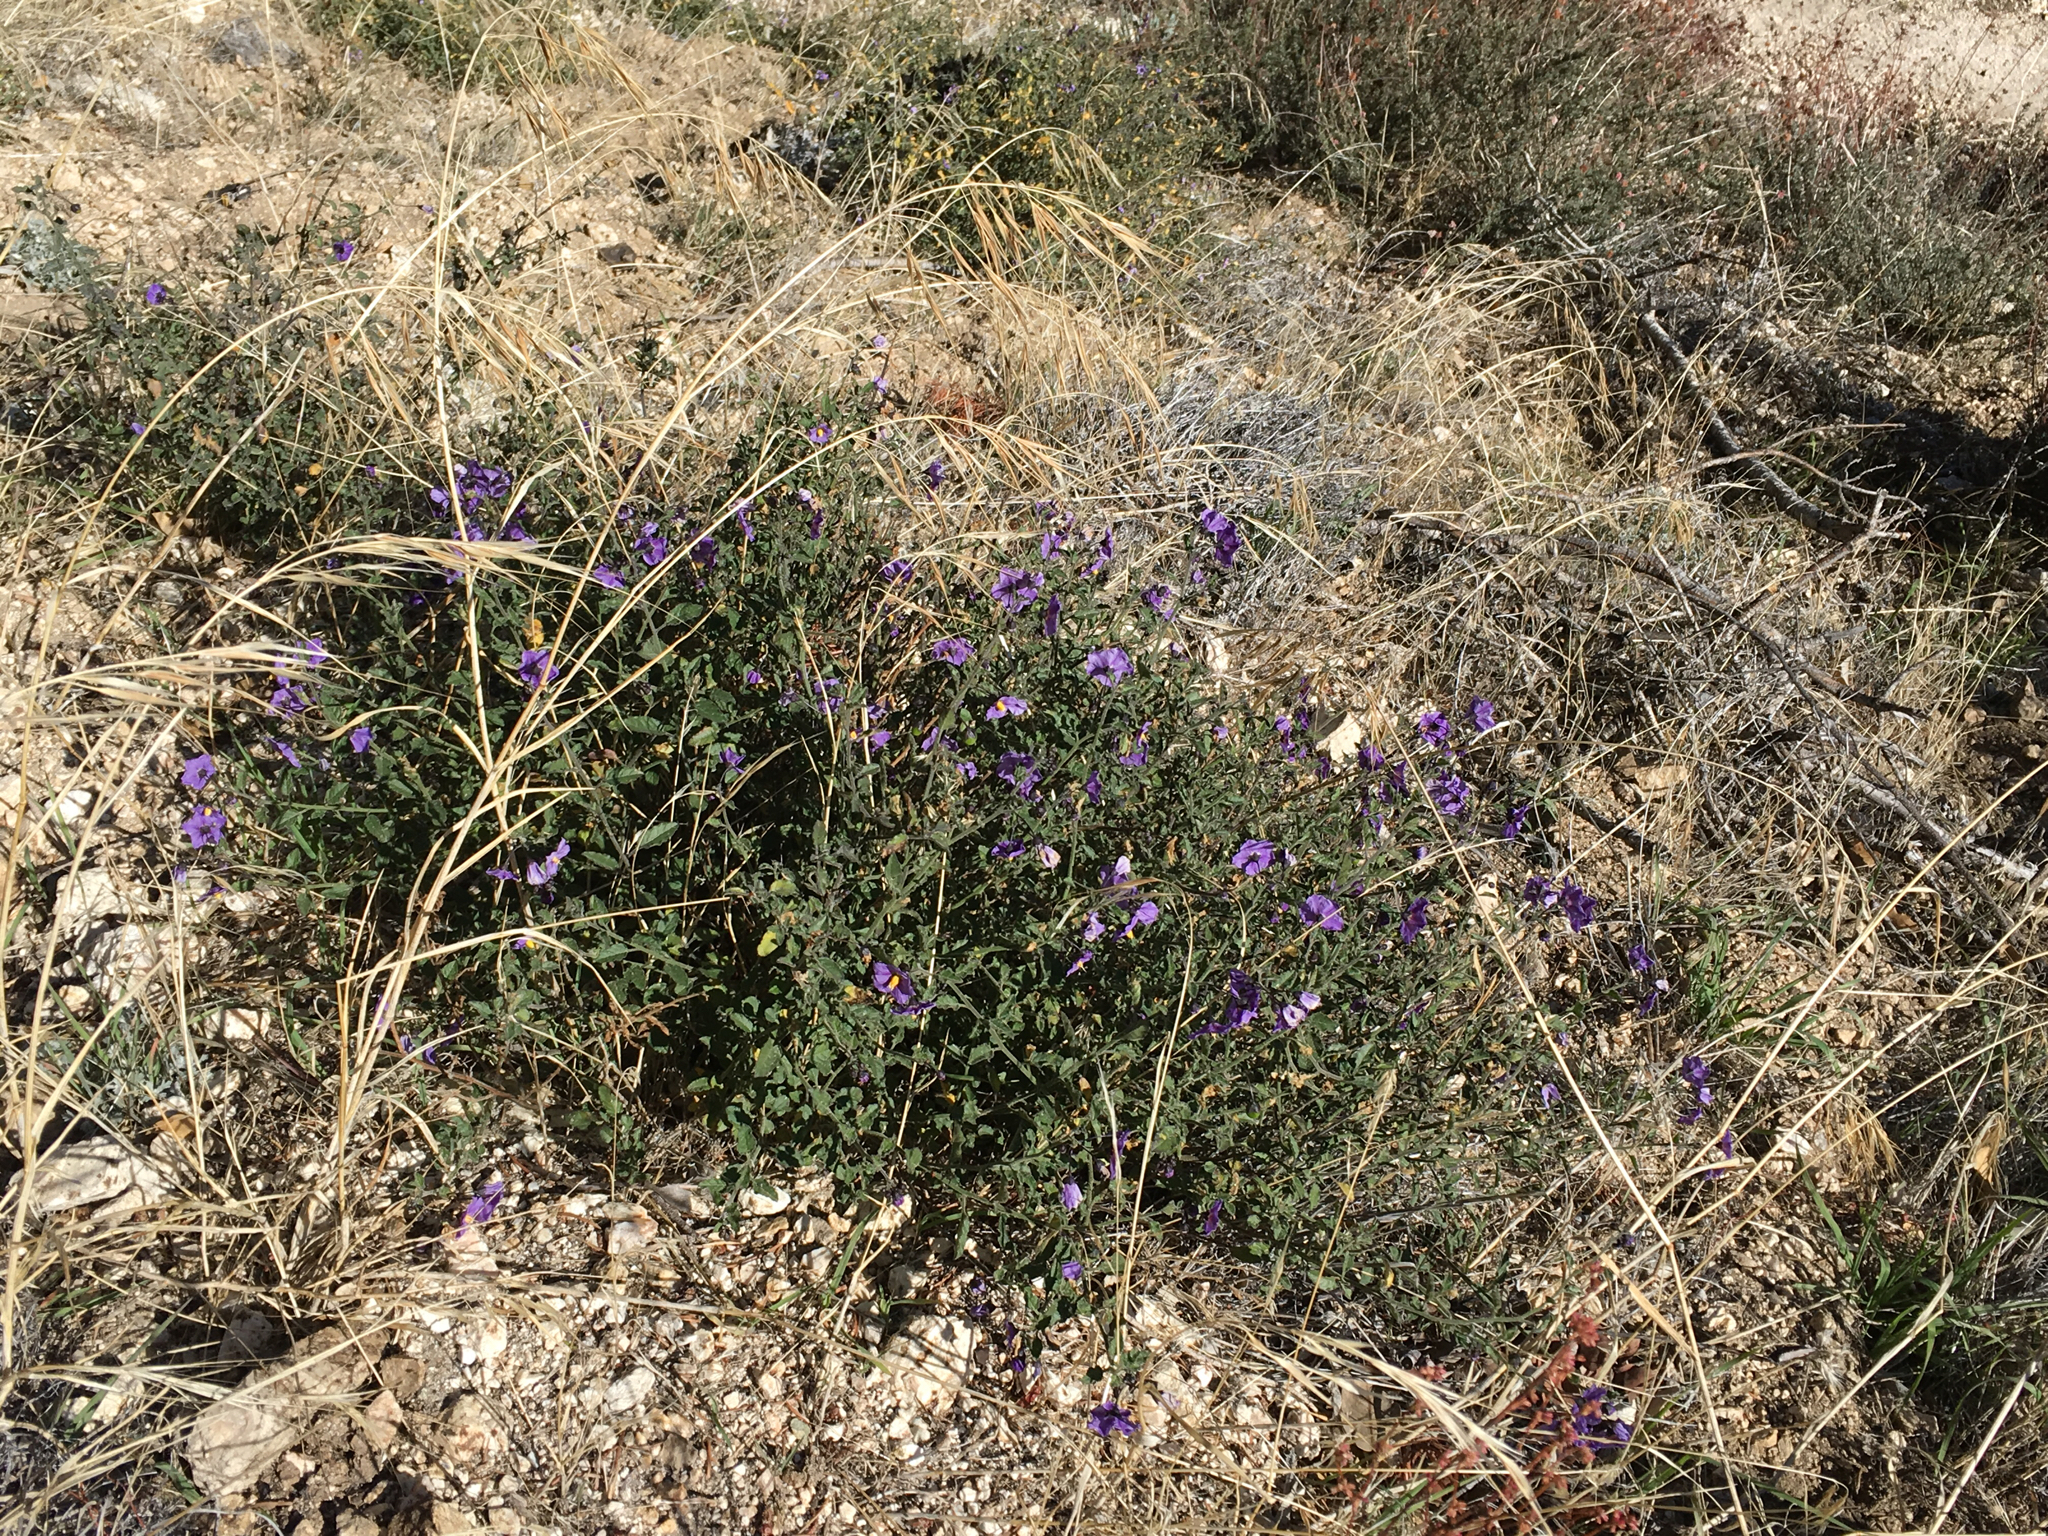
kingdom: Plantae
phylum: Tracheophyta
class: Magnoliopsida
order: Solanales
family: Solanaceae
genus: Solanum
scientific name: Solanum umbelliferum
